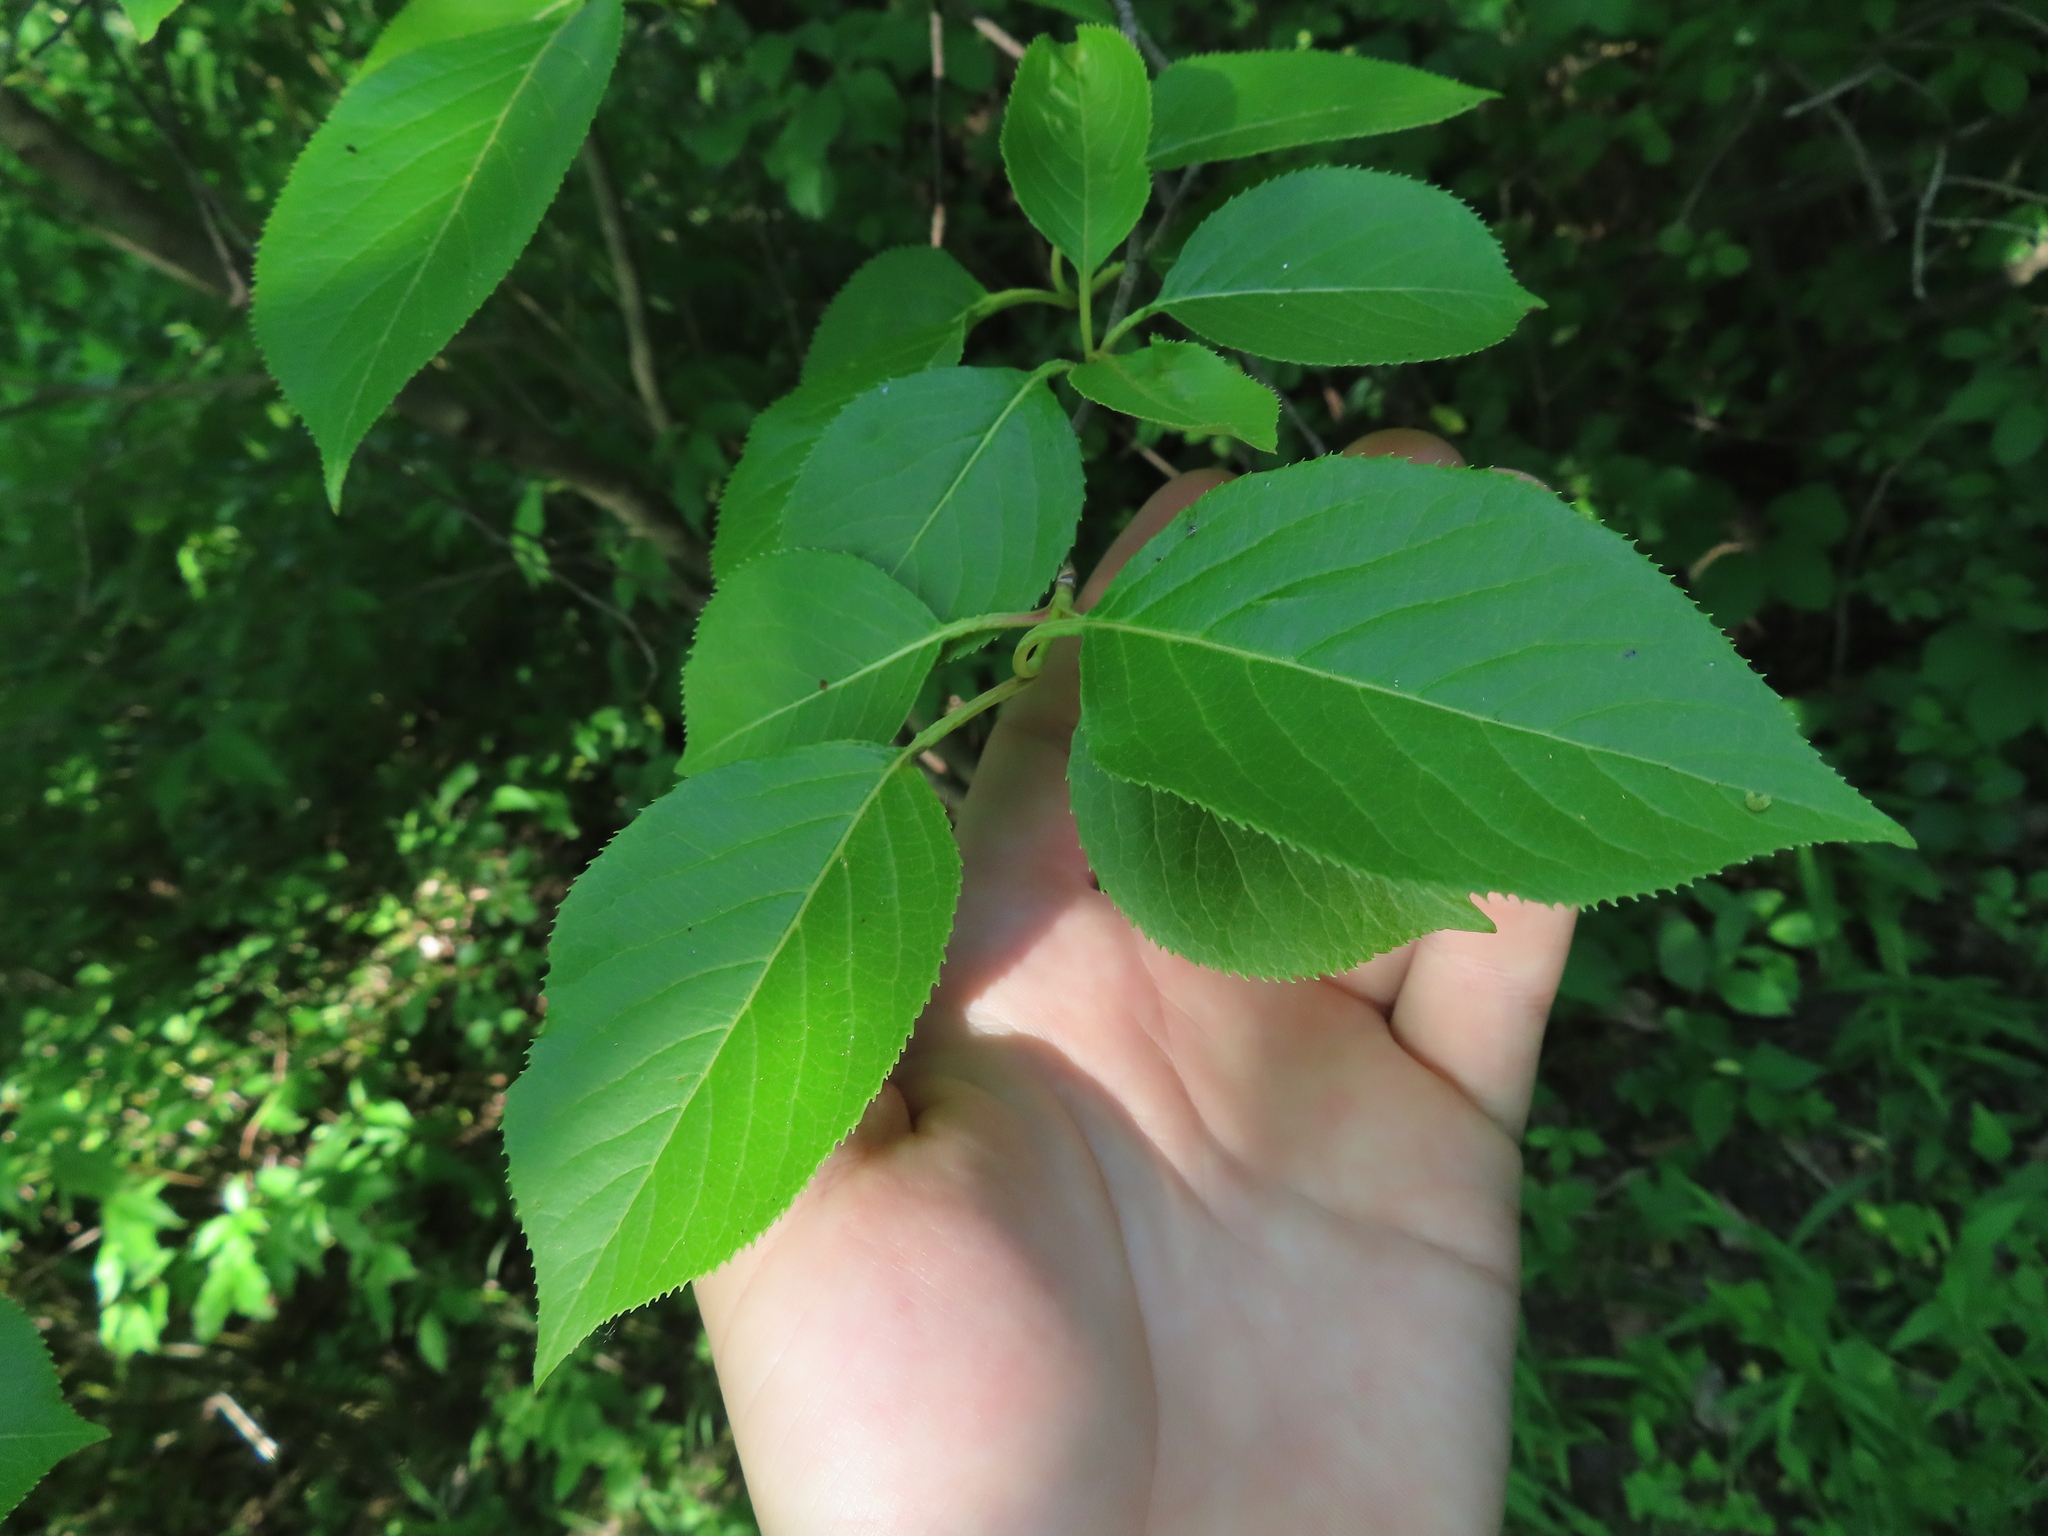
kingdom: Plantae
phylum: Tracheophyta
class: Magnoliopsida
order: Dipsacales
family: Viburnaceae
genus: Viburnum
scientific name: Viburnum lentago
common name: Black haw
